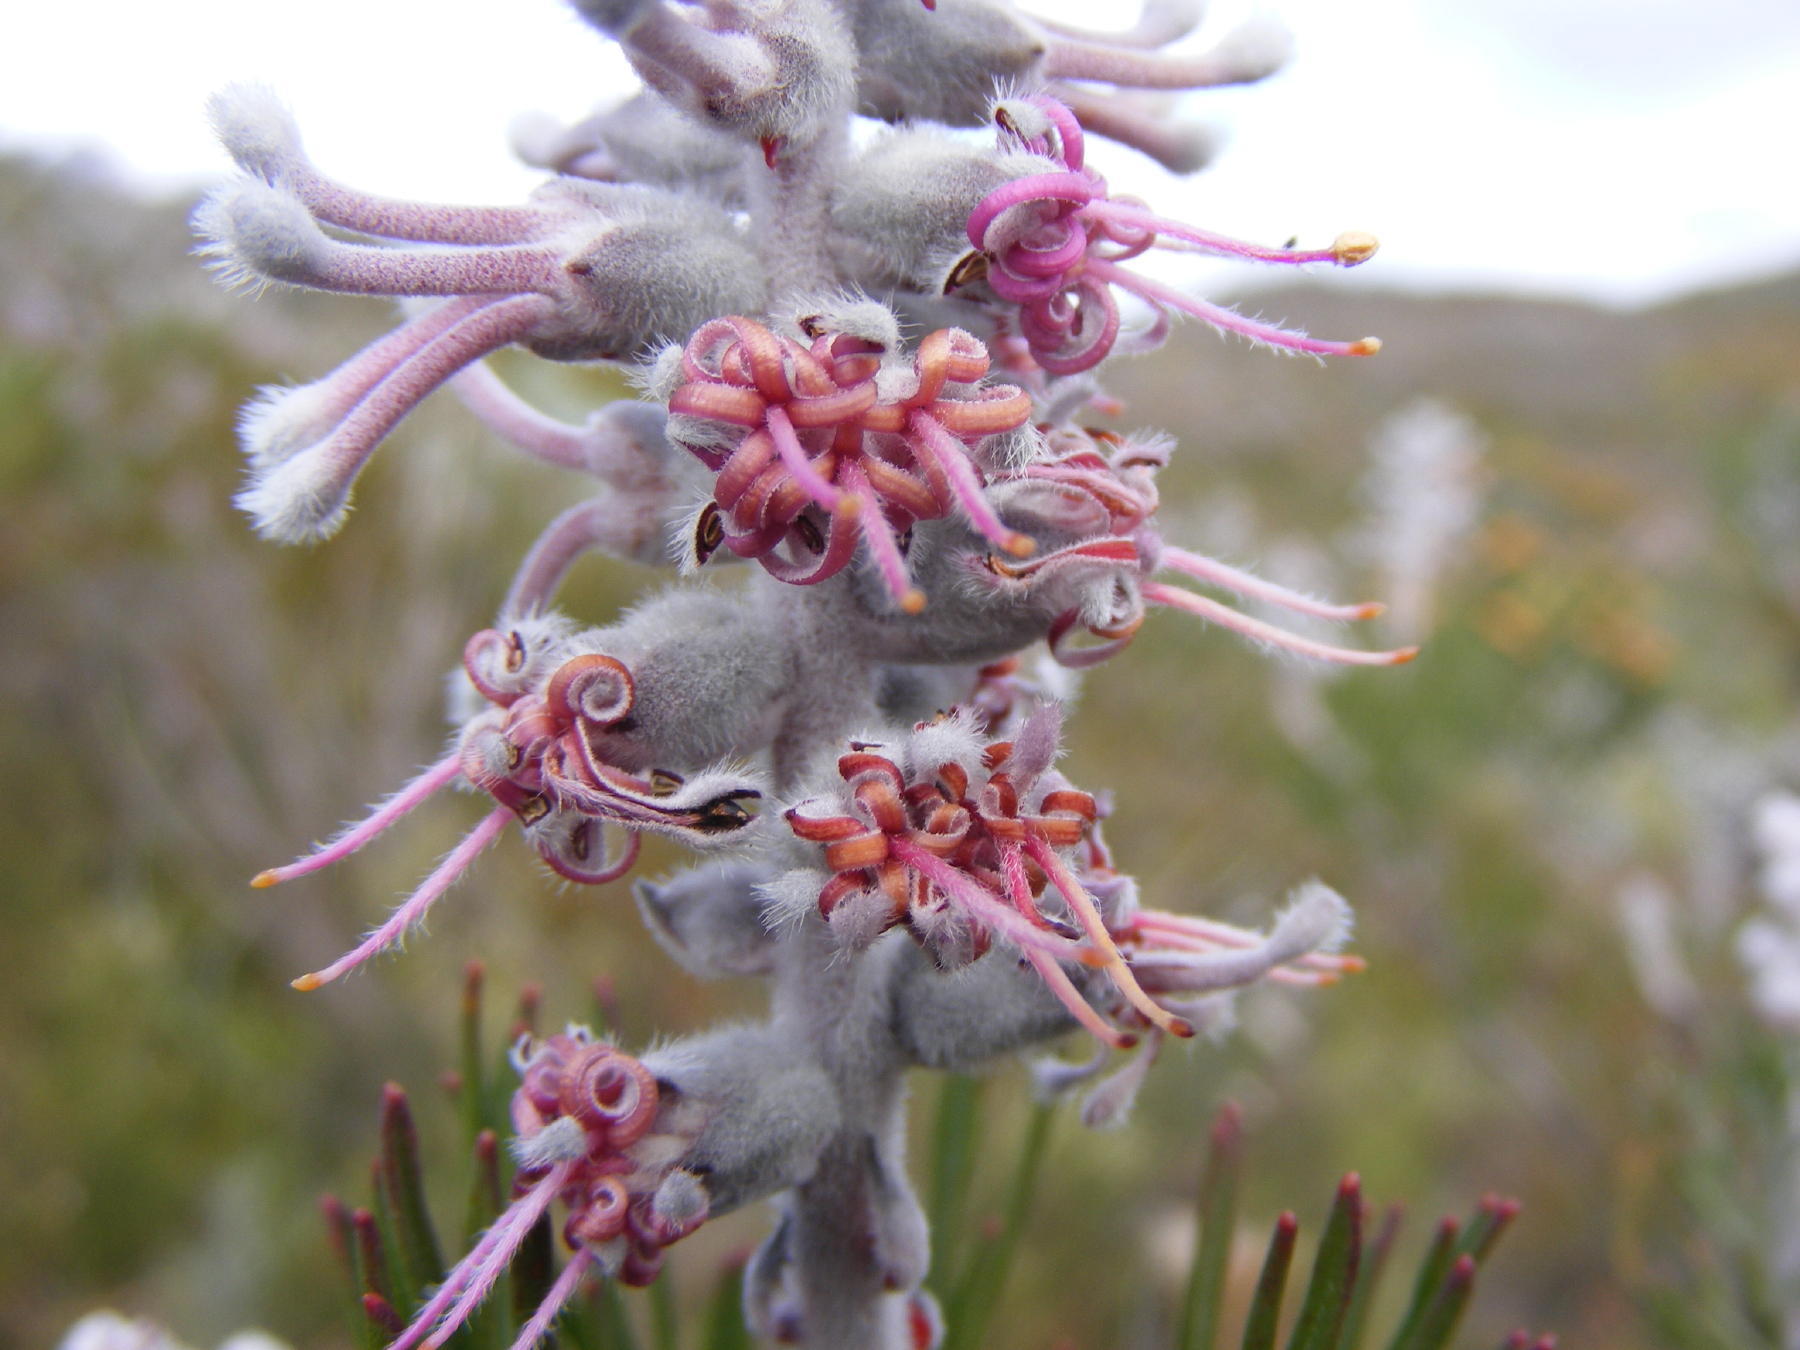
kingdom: Plantae
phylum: Tracheophyta
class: Magnoliopsida
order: Proteales
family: Proteaceae
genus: Paranomus
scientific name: Paranomus dispersus
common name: Long-head sceptre
